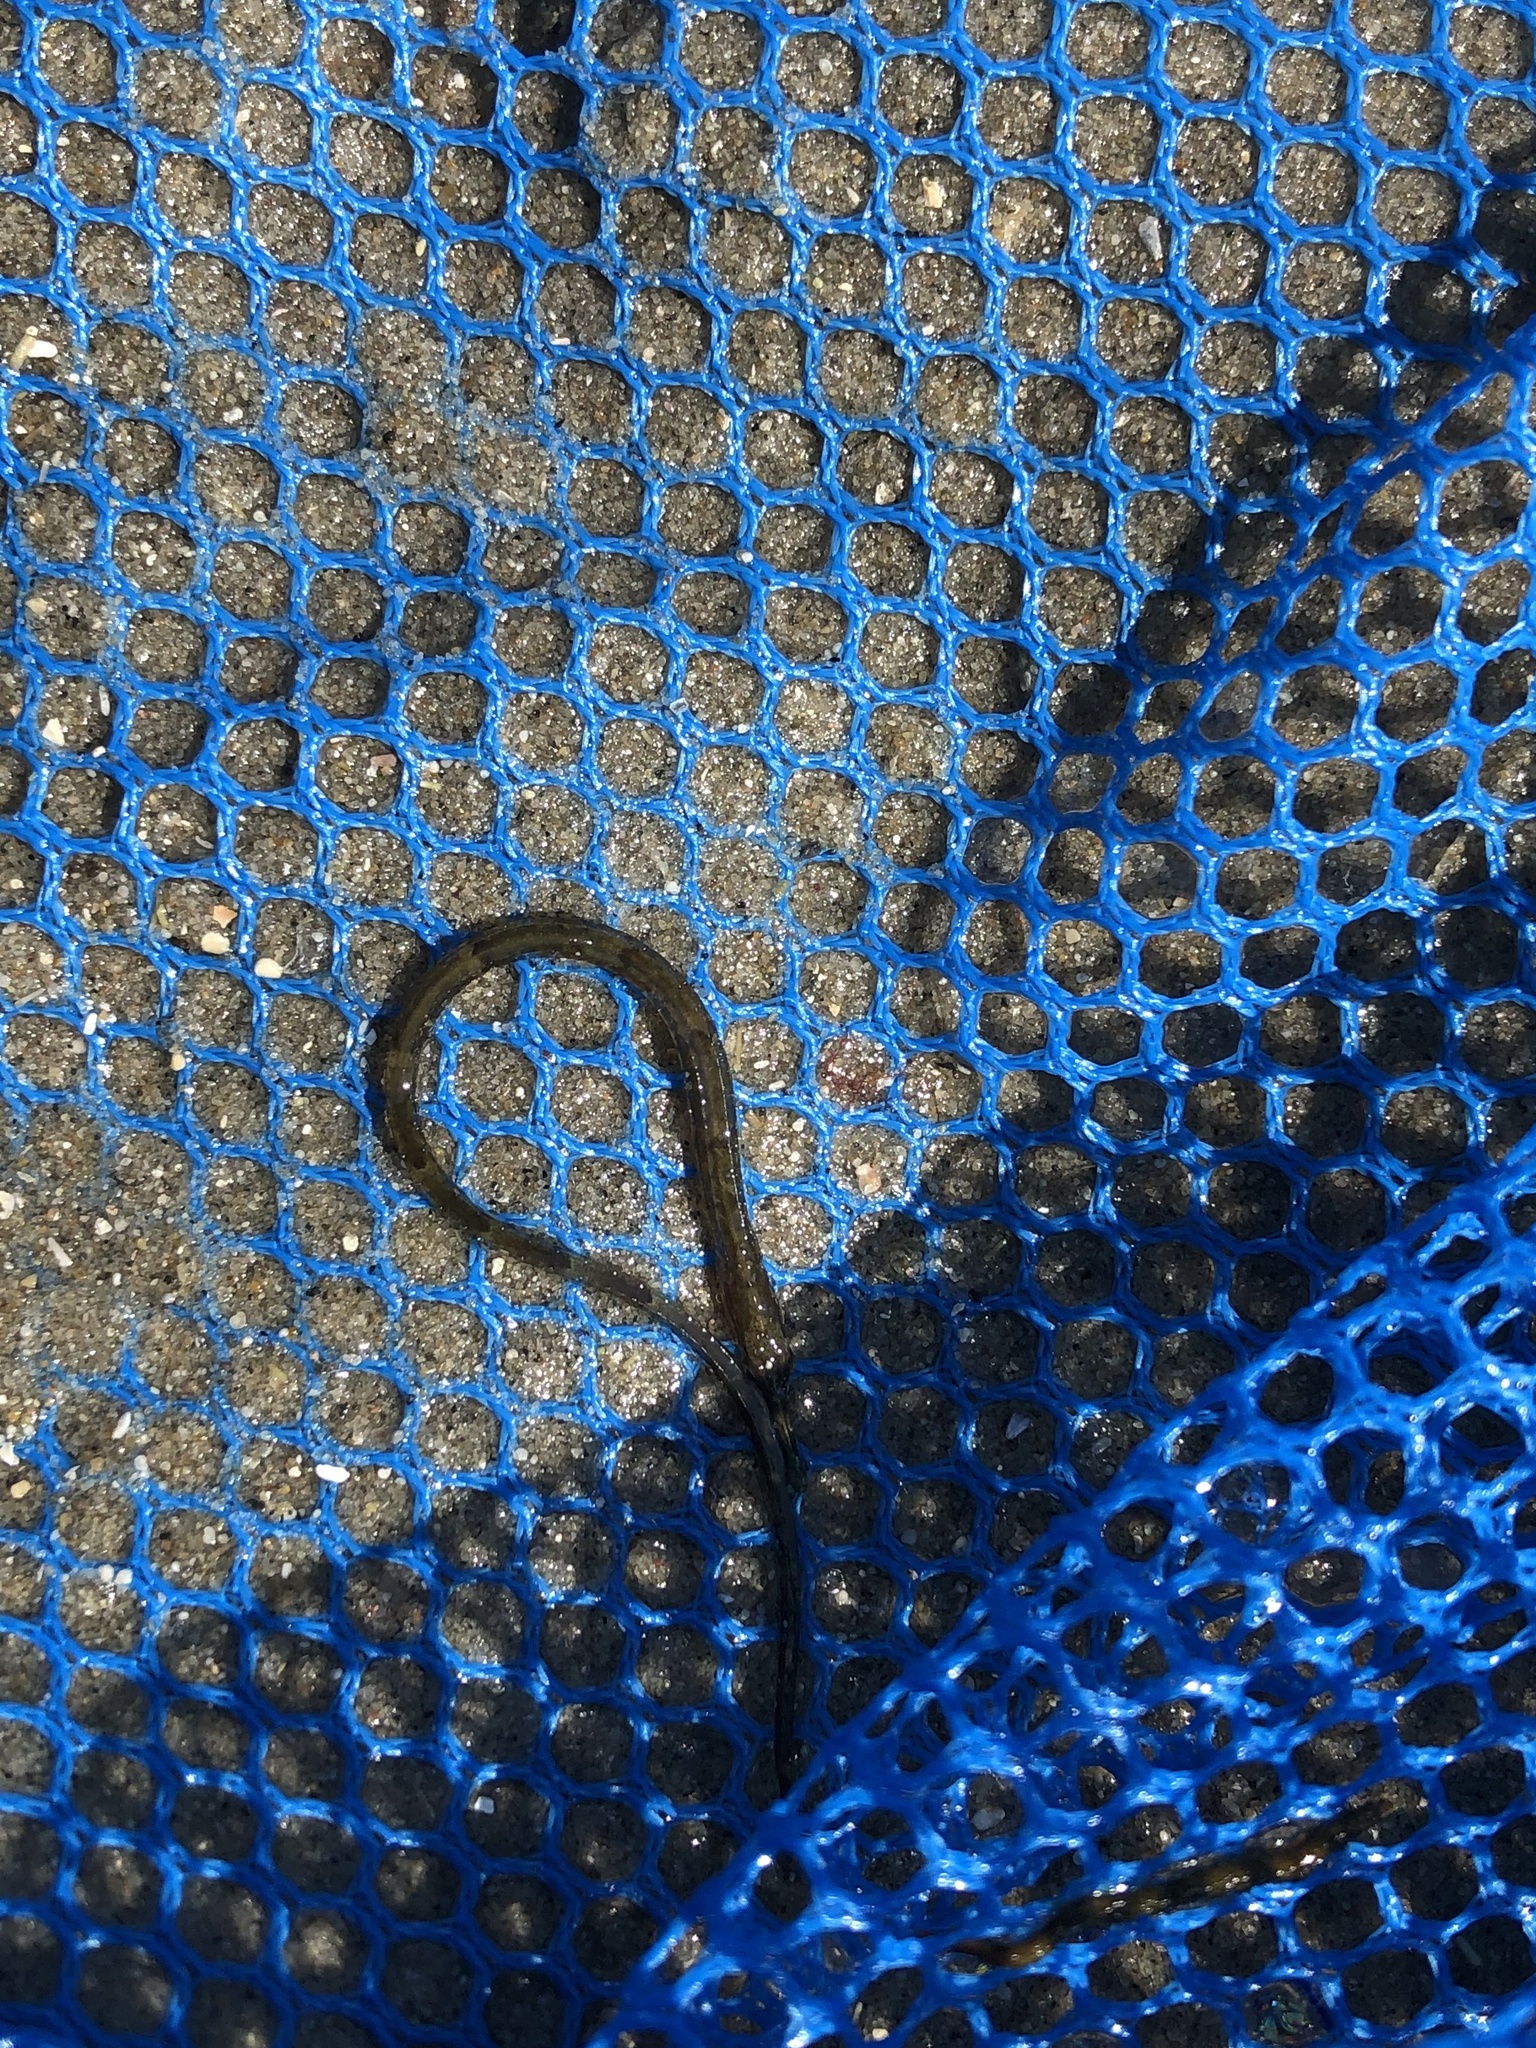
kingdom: Animalia
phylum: Chordata
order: Syngnathiformes
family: Syngnathidae
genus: Syngnathus
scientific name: Syngnathus fuscus
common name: Northern pipefish
